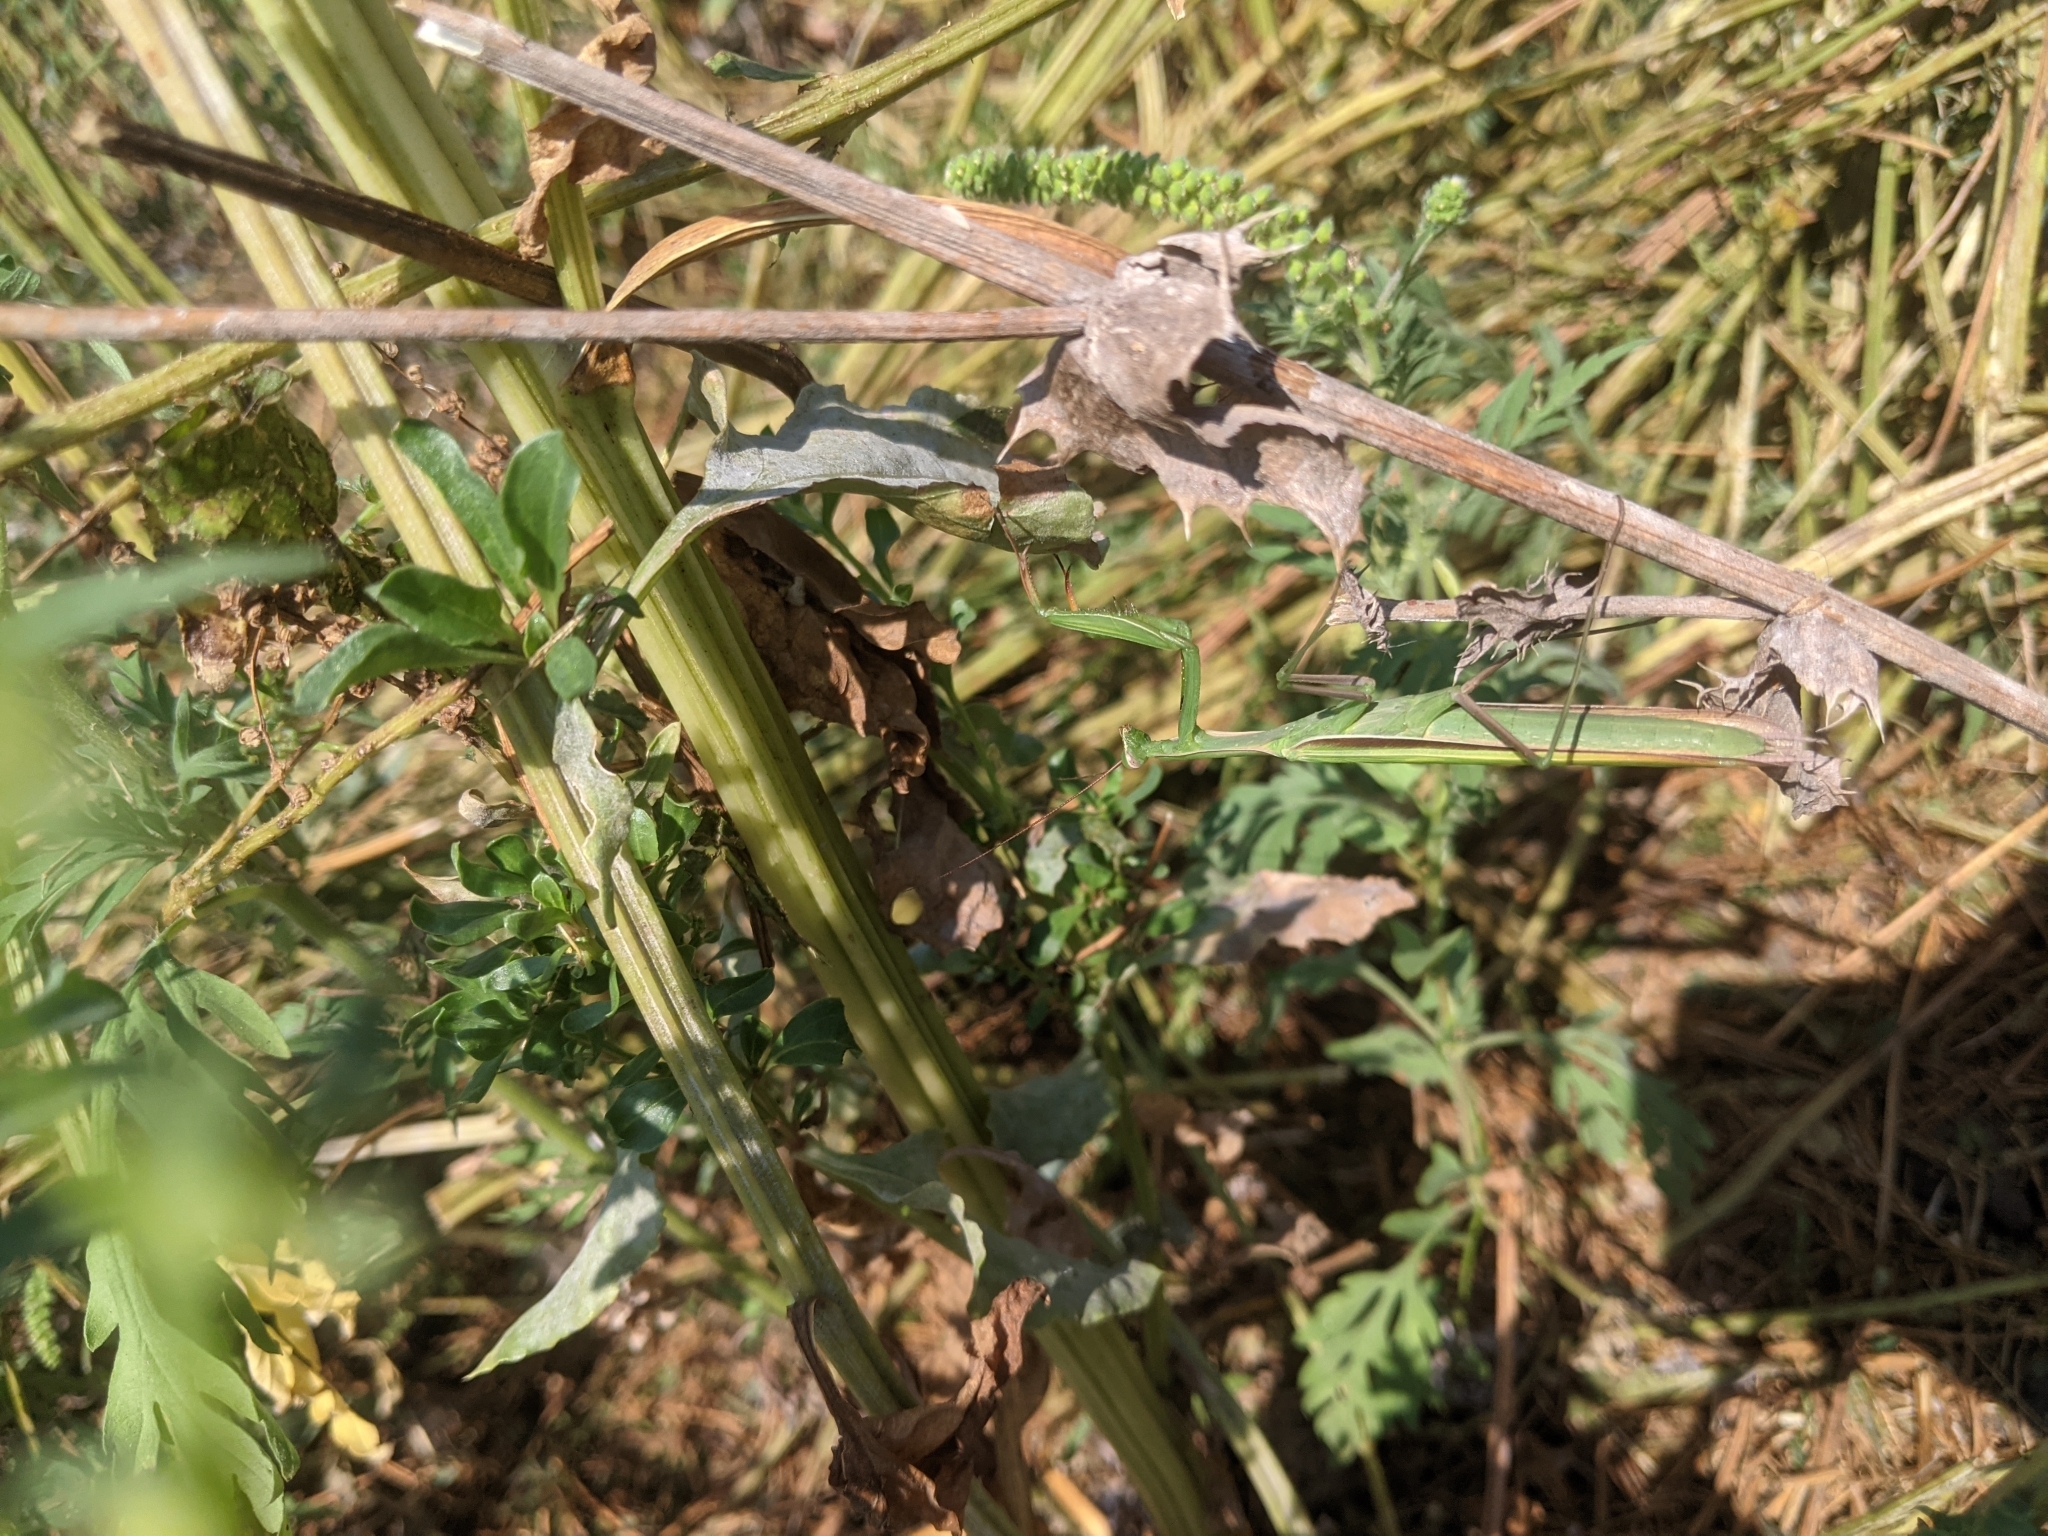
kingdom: Animalia
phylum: Arthropoda
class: Insecta
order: Mantodea
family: Mantidae
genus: Mantis
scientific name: Mantis religiosa
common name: Praying mantis
